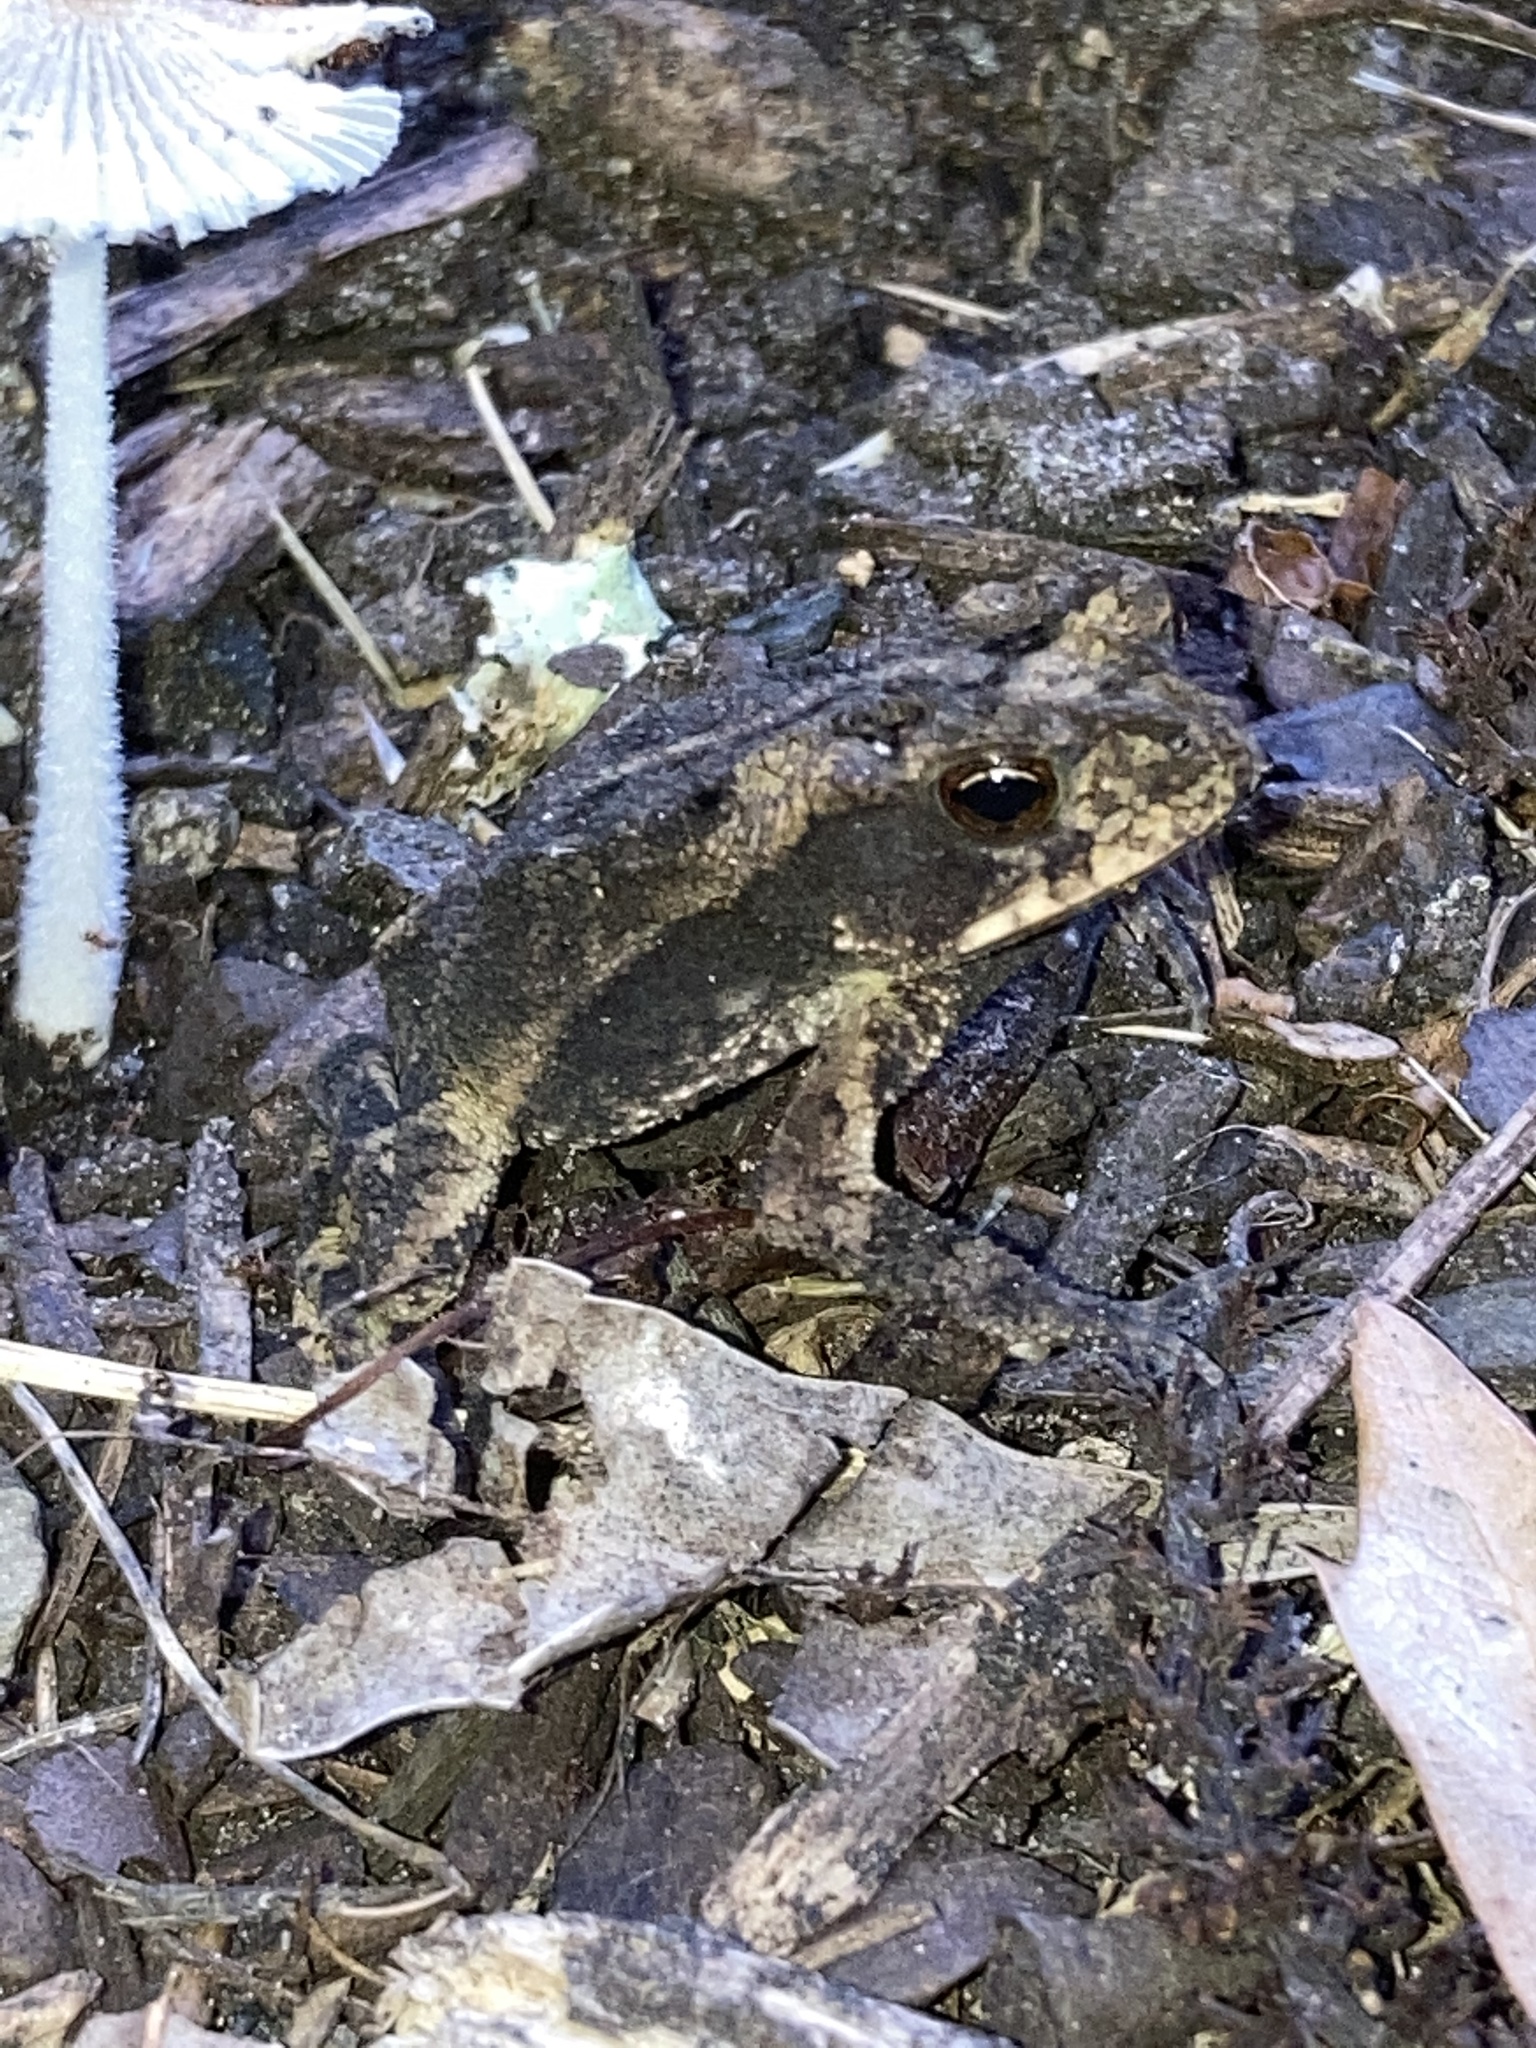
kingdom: Animalia
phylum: Chordata
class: Amphibia
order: Anura
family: Bufonidae
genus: Incilius
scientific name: Incilius nebulifer
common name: Gulf coast toad
